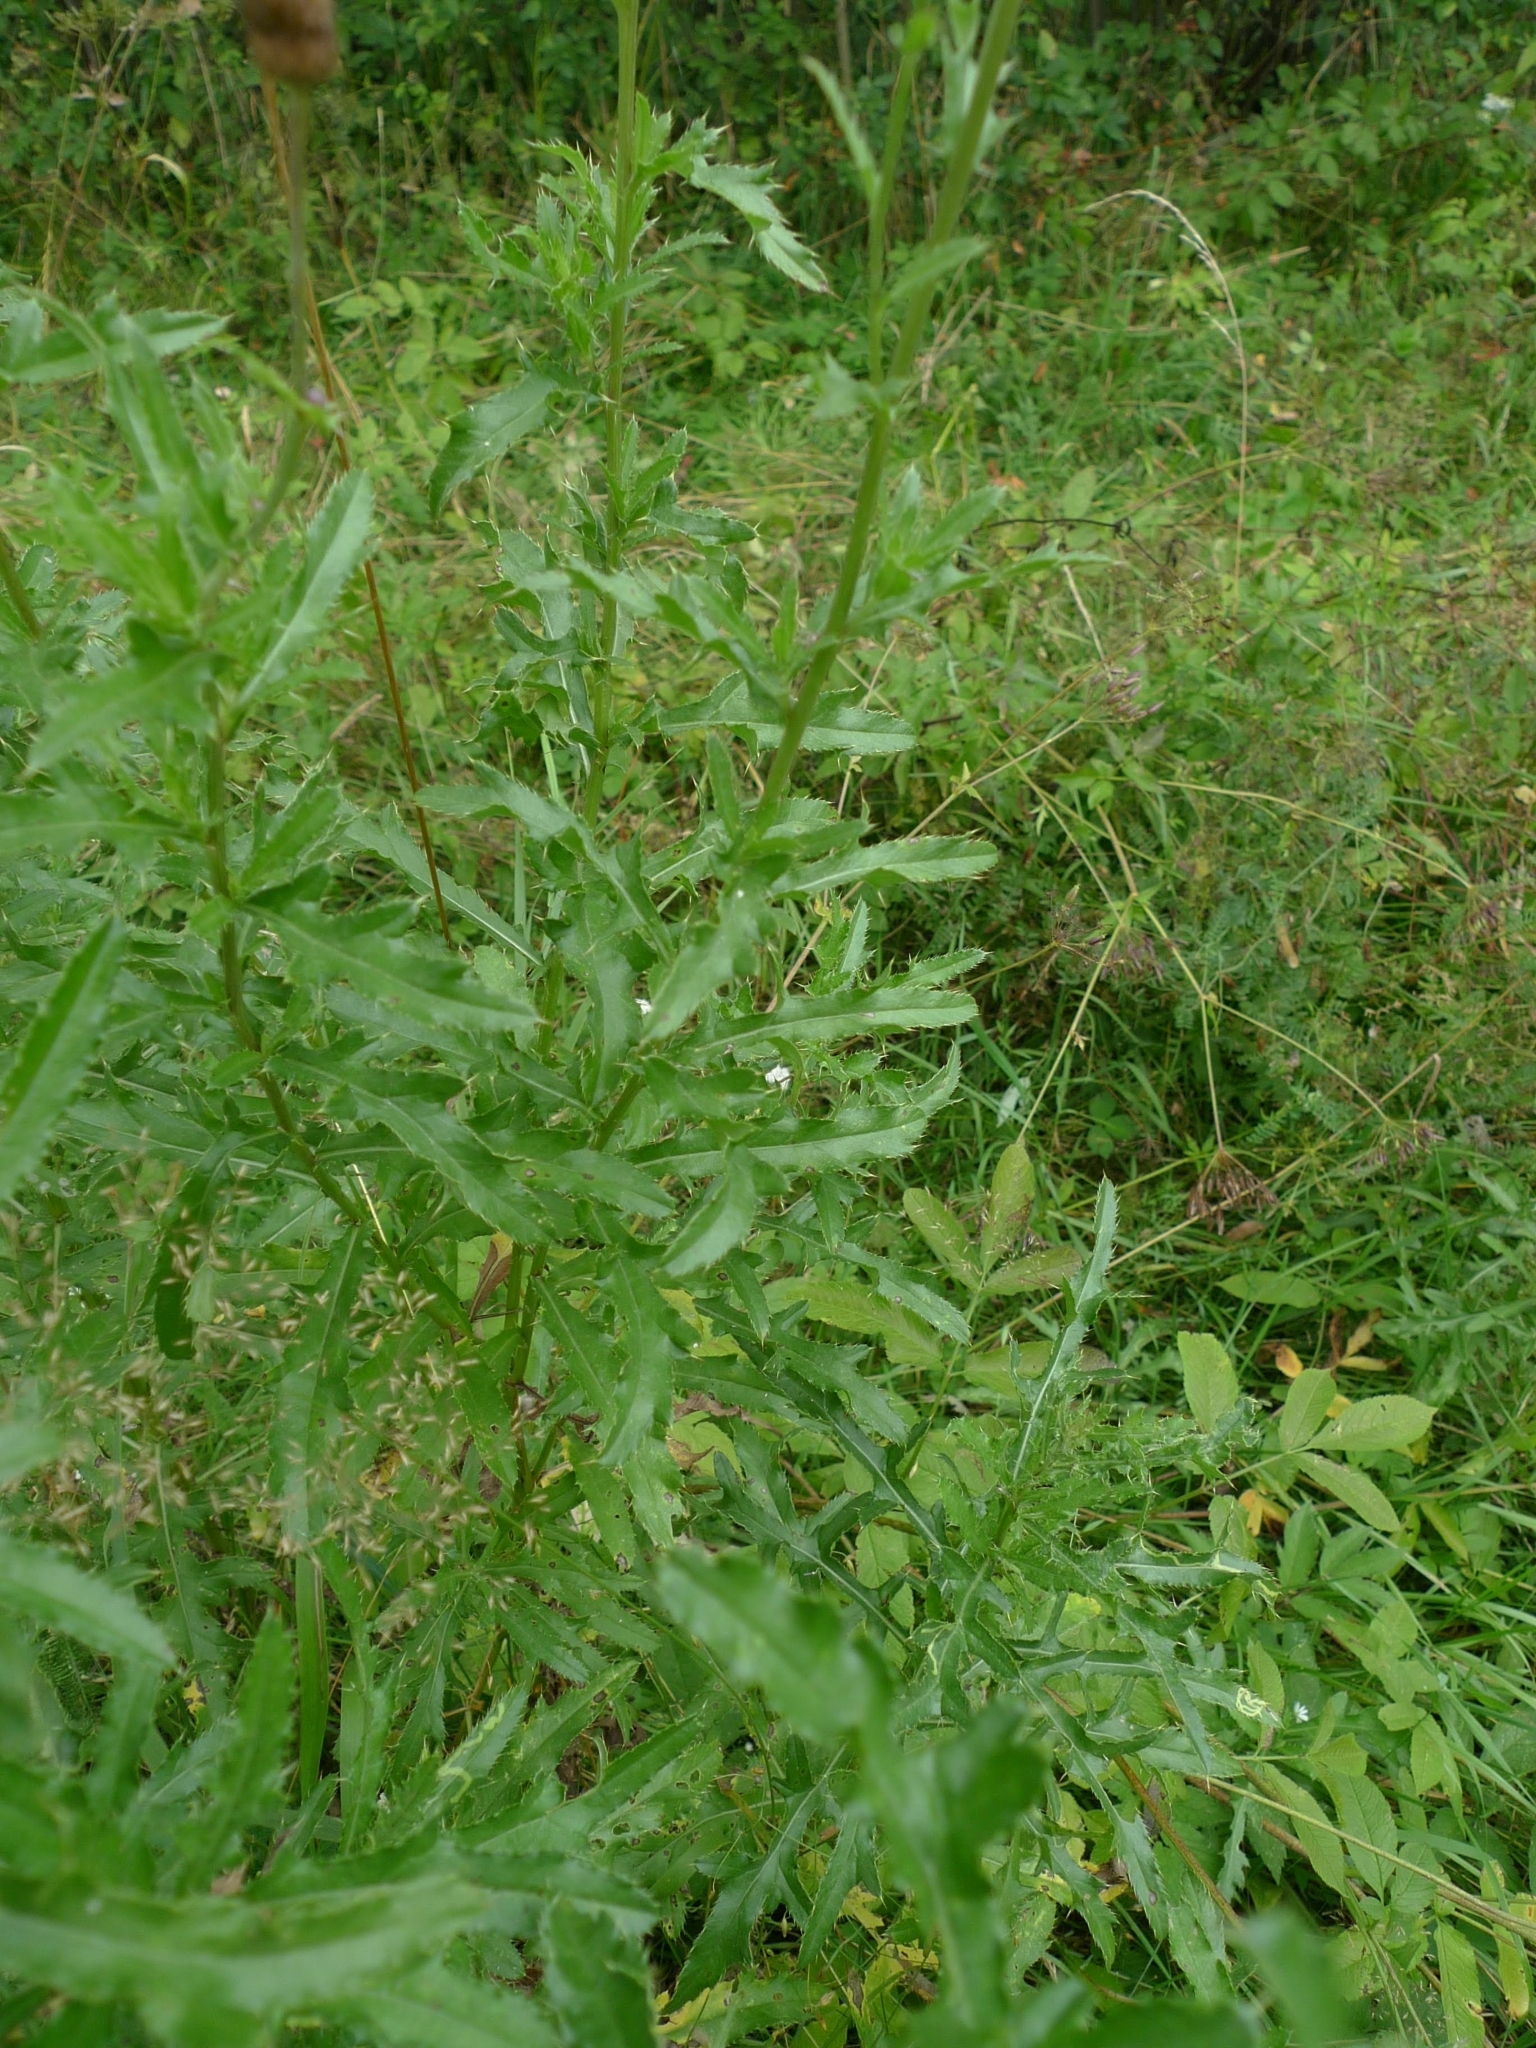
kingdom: Plantae
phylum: Tracheophyta
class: Magnoliopsida
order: Asterales
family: Asteraceae
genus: Cirsium
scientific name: Cirsium arvense
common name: Creeping thistle
